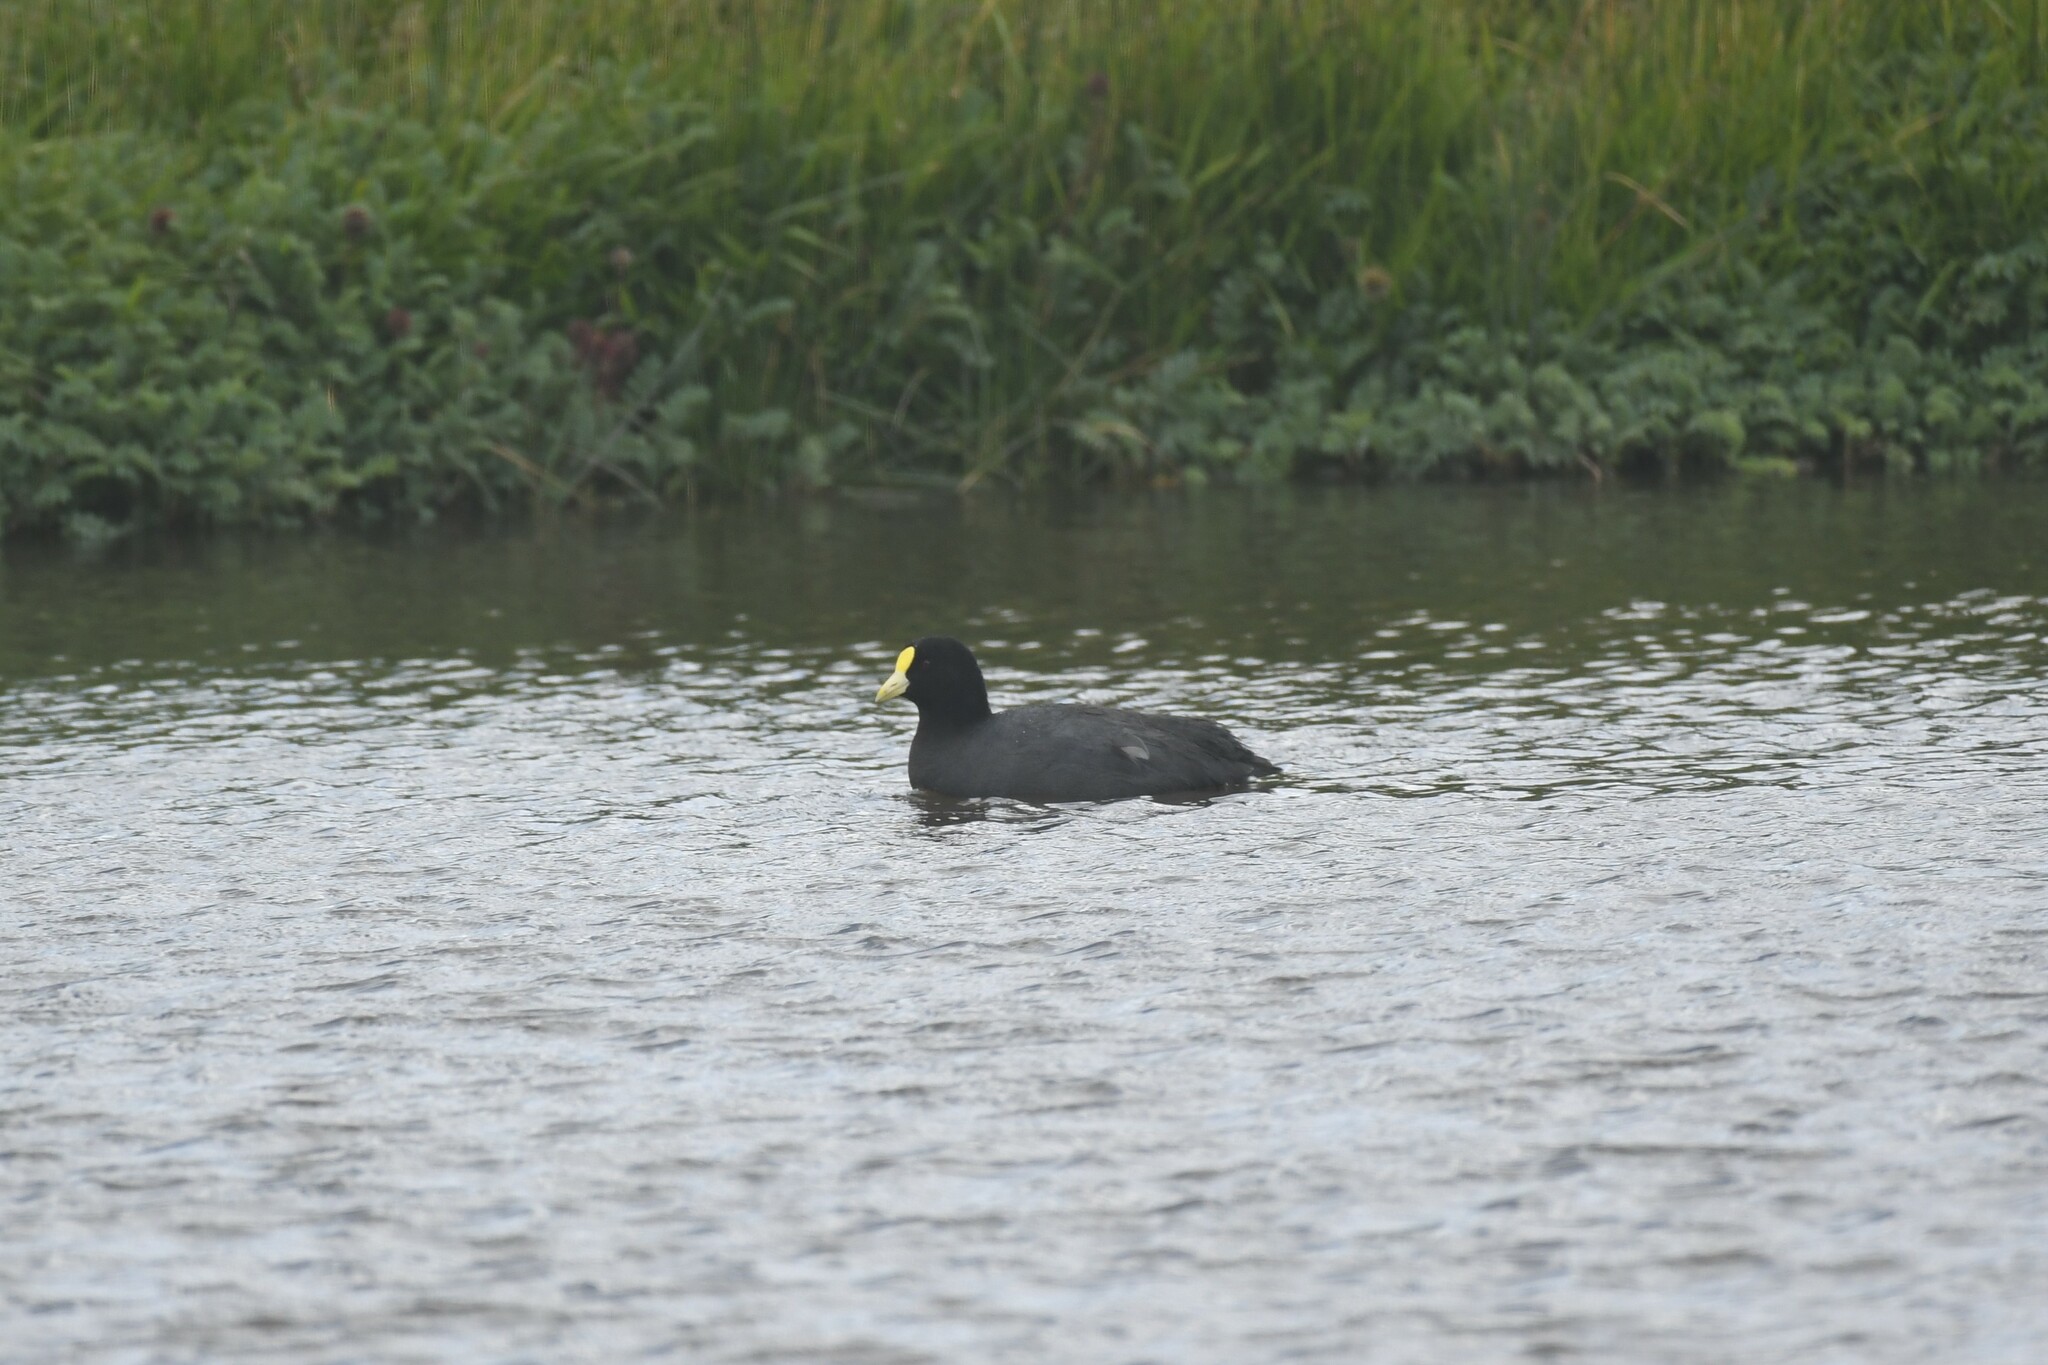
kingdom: Animalia
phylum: Chordata
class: Aves
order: Gruiformes
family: Rallidae
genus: Fulica
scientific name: Fulica leucoptera
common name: White-winged coot
